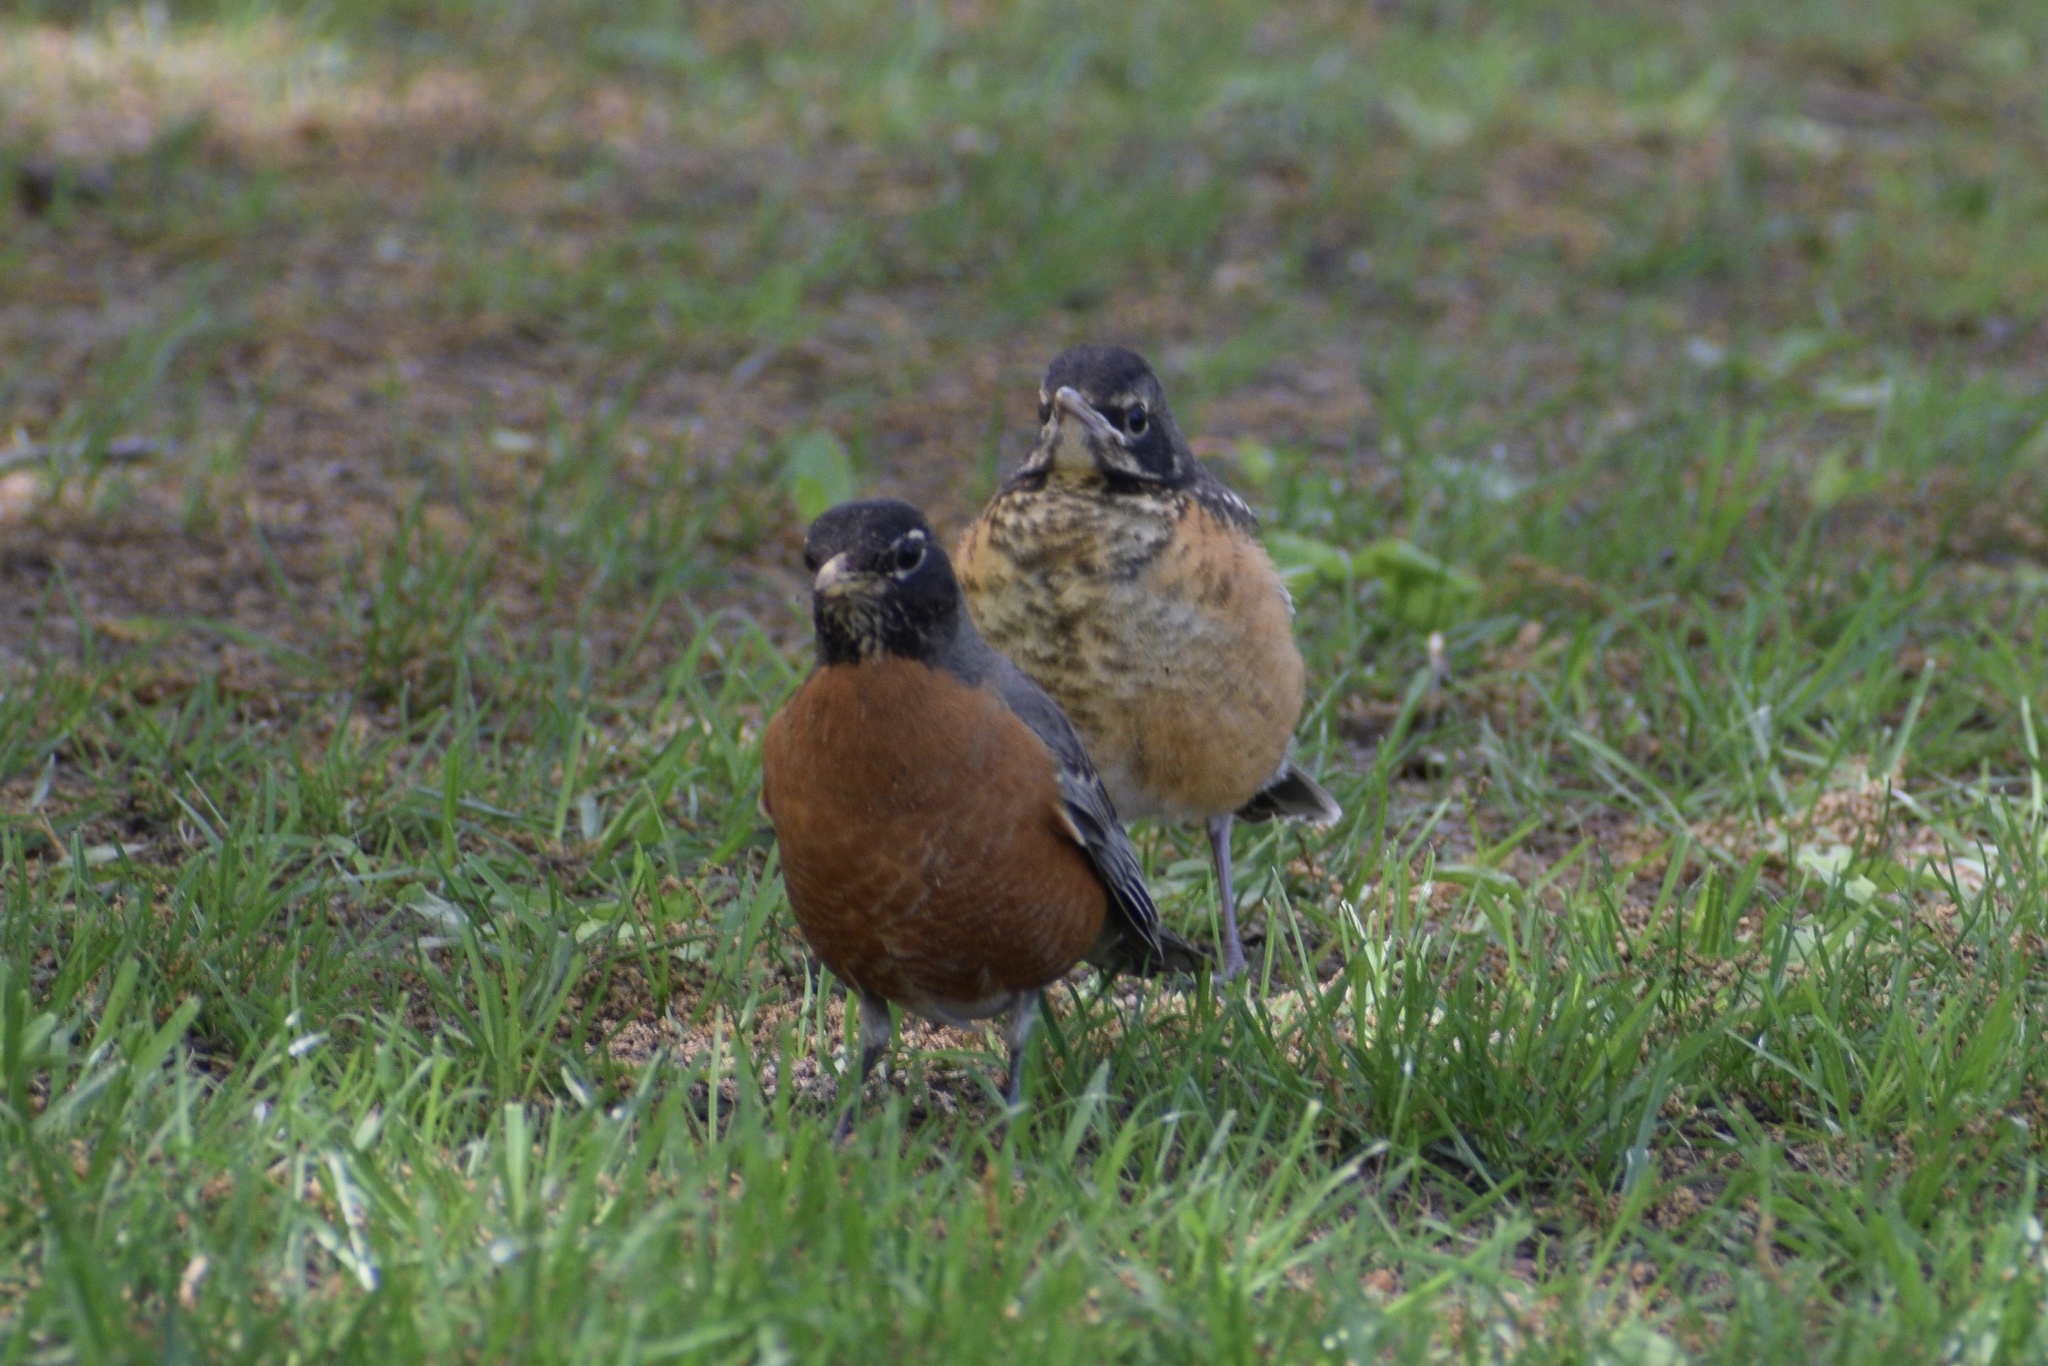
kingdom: Animalia
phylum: Chordata
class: Aves
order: Passeriformes
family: Turdidae
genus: Turdus
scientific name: Turdus migratorius
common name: American robin
